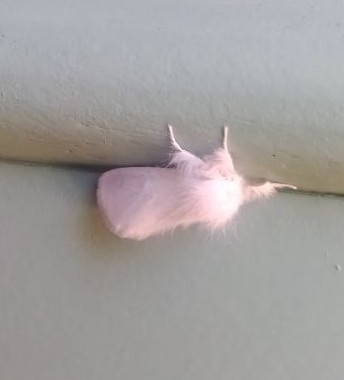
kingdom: Animalia
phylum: Arthropoda
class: Insecta
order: Lepidoptera
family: Erebidae
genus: Sphrageidus
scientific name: Sphrageidus similis
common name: Yellow-tail
